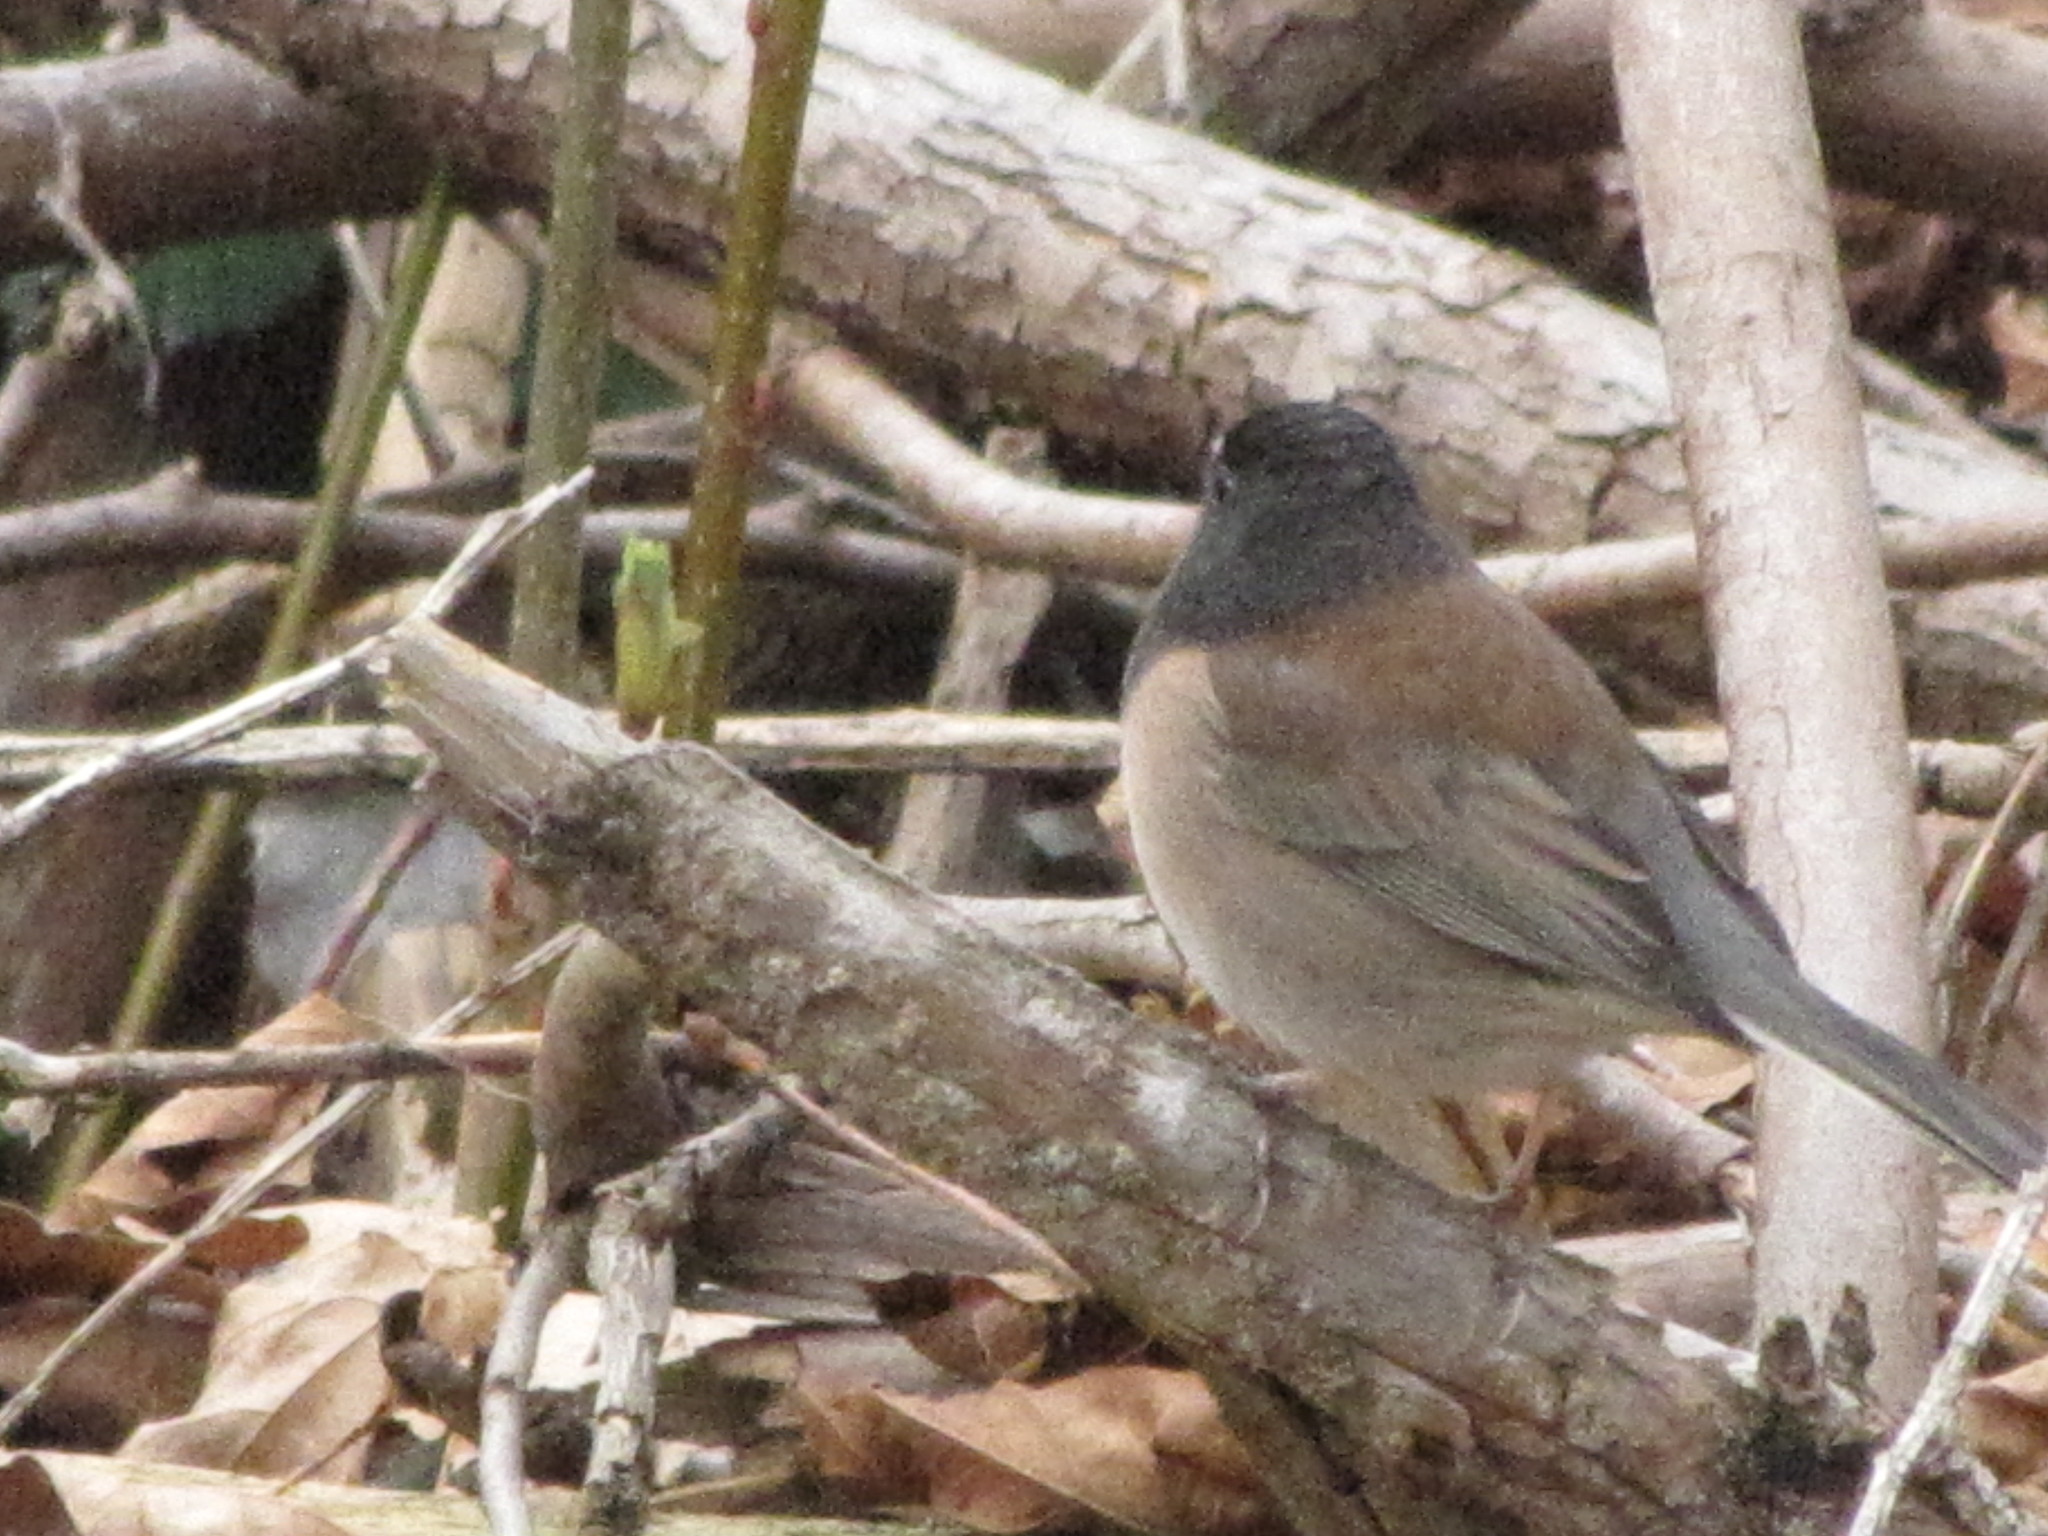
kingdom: Animalia
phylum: Chordata
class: Aves
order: Passeriformes
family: Passerellidae
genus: Junco
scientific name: Junco hyemalis
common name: Dark-eyed junco
